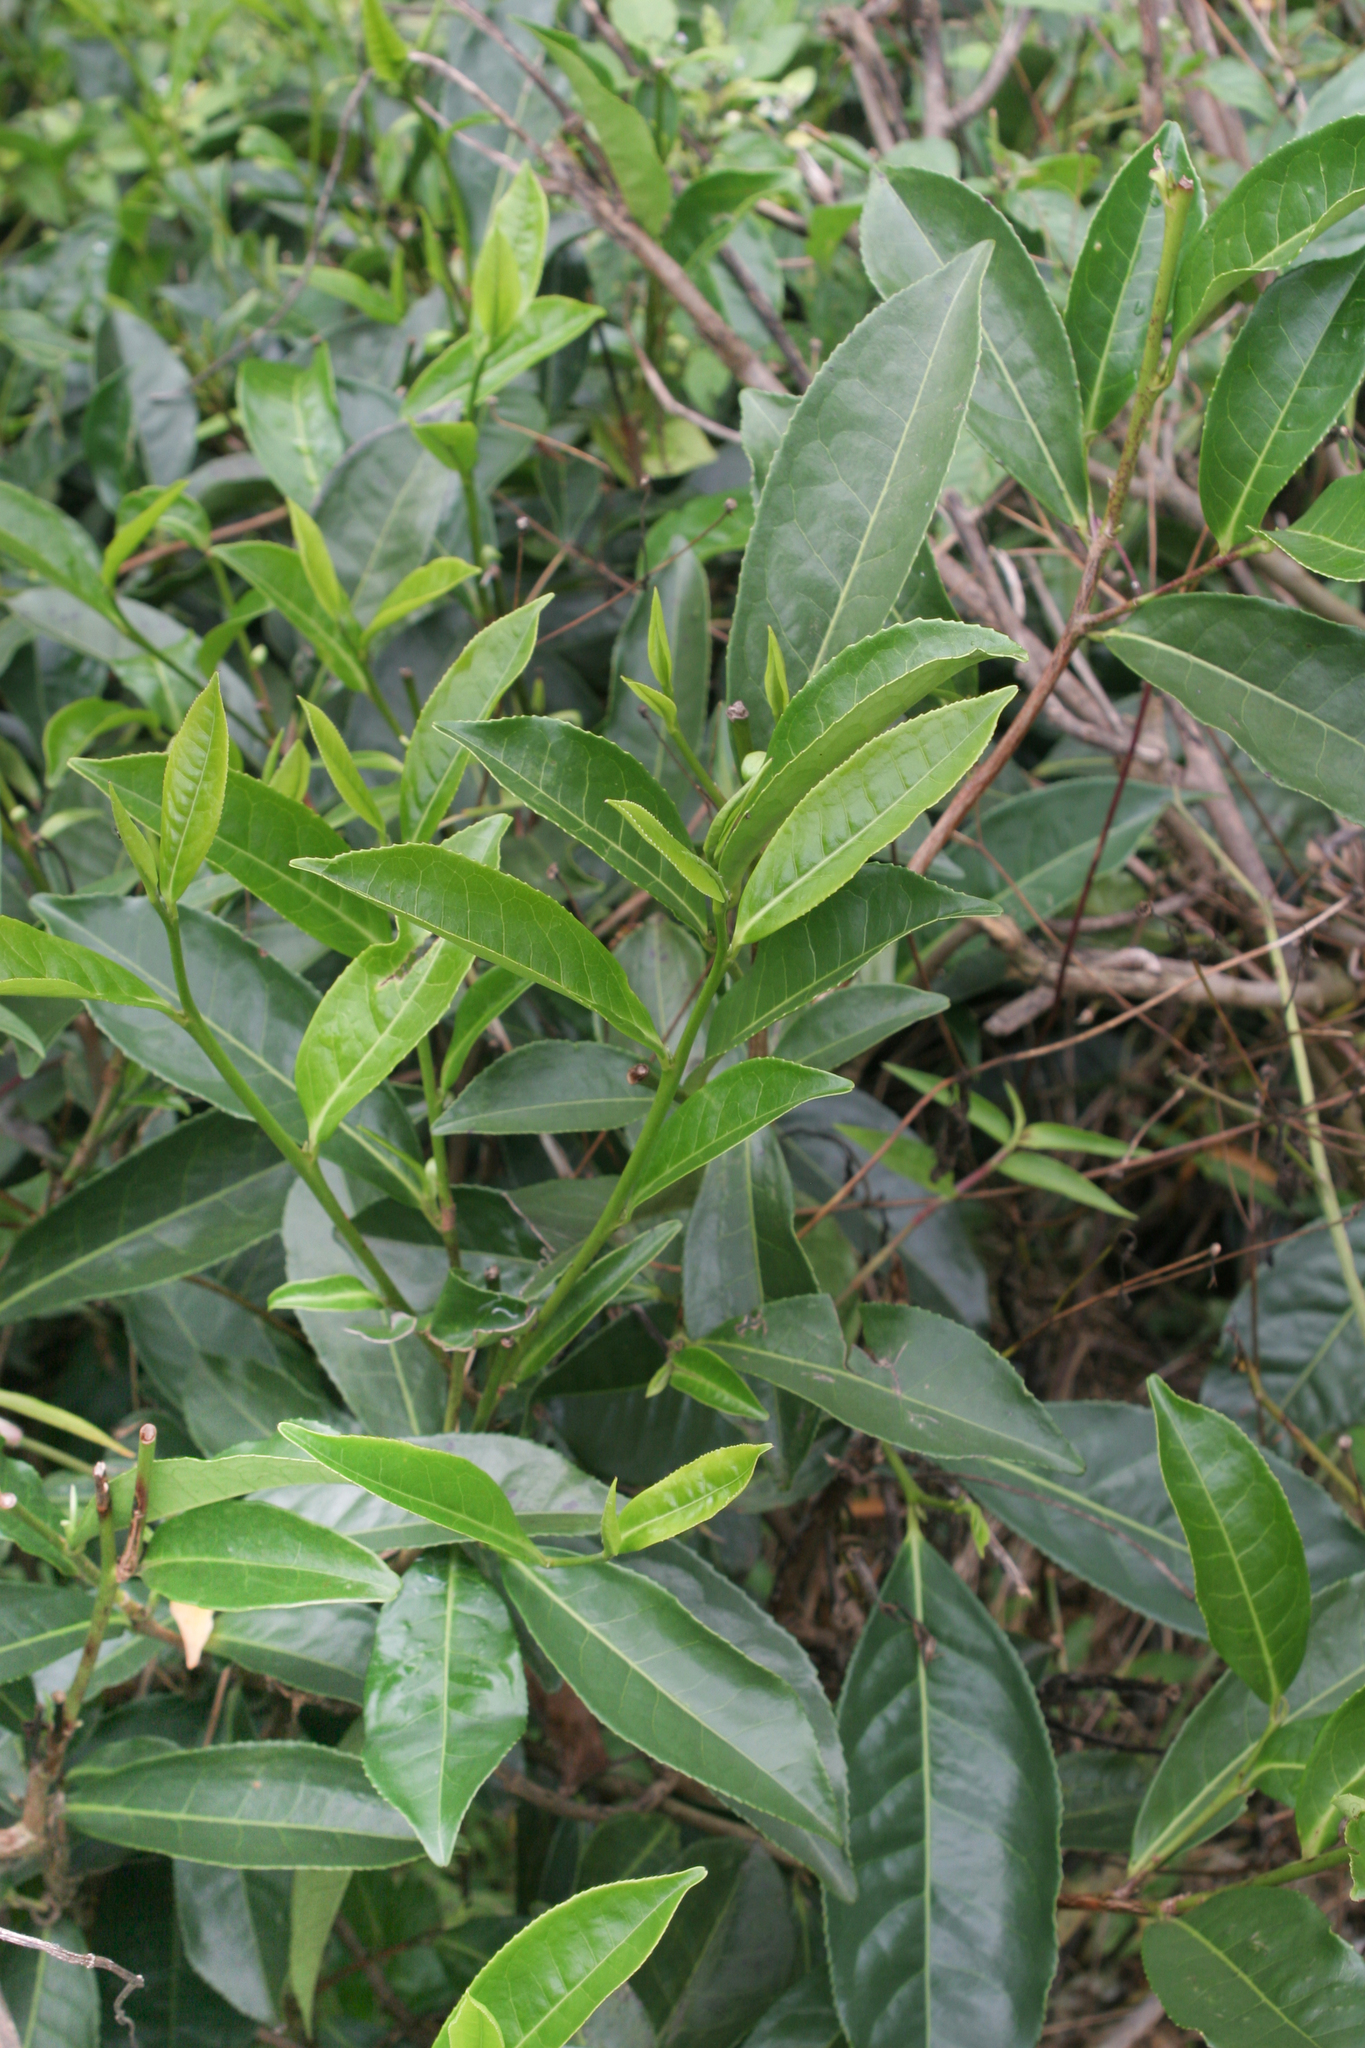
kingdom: Plantae
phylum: Tracheophyta
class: Magnoliopsida
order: Ericales
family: Theaceae
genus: Camellia
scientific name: Camellia sinensis
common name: Tea
